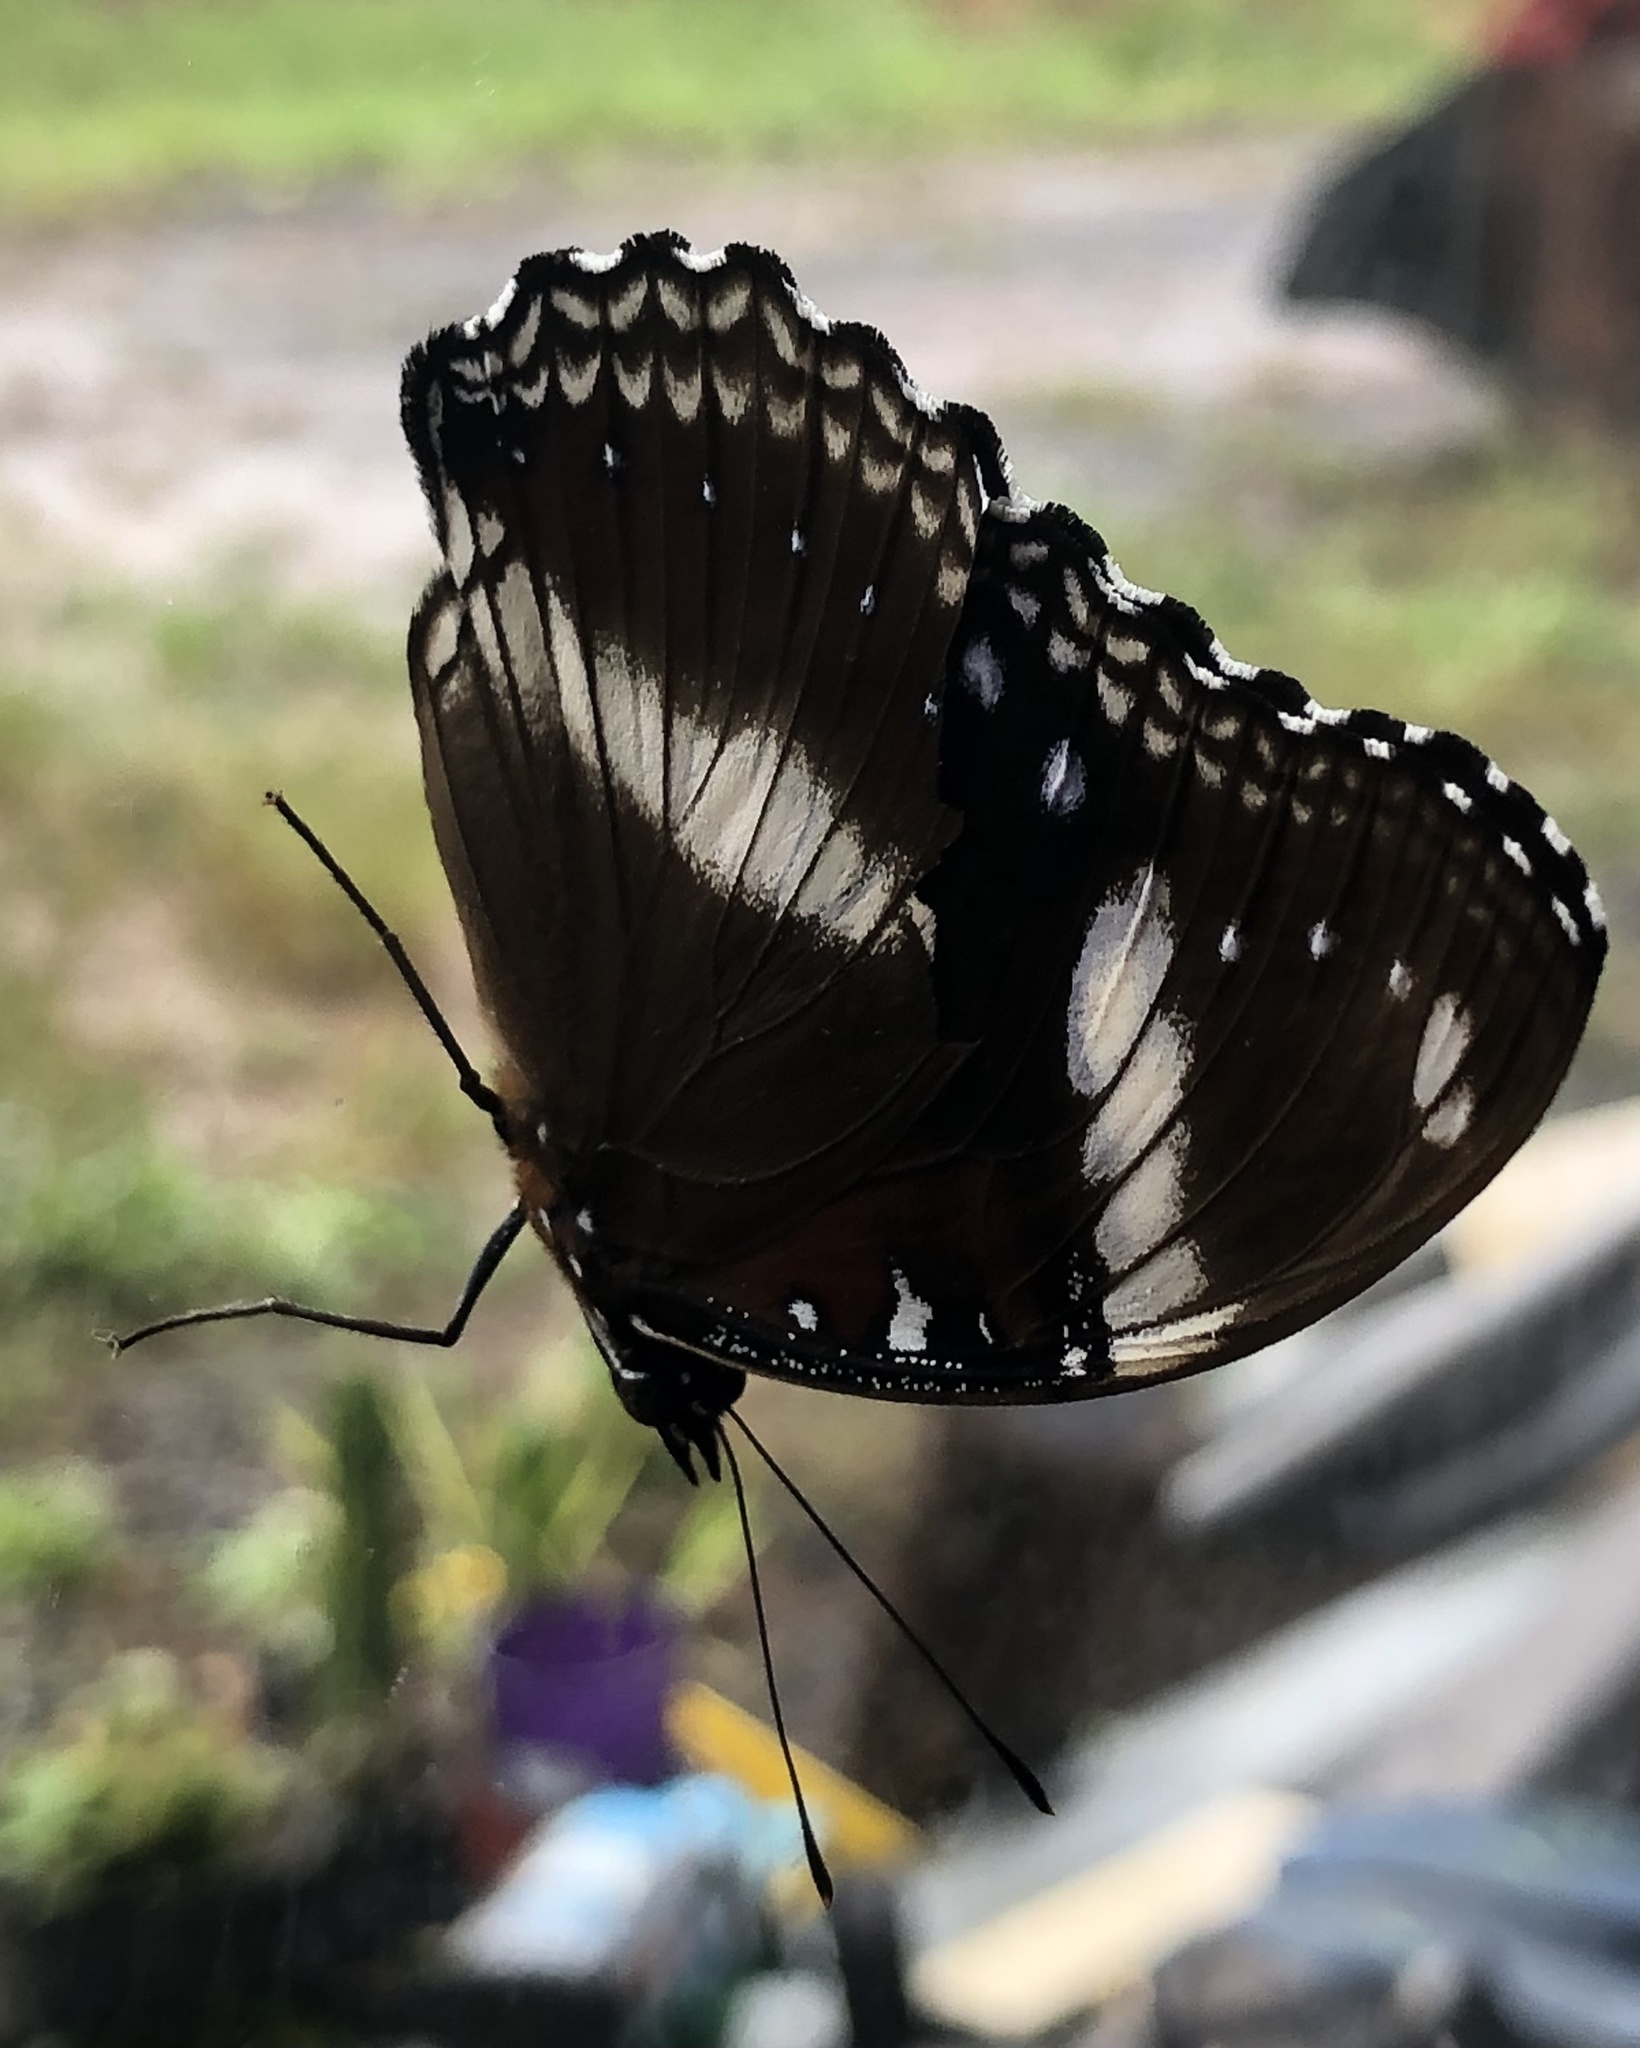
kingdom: Animalia
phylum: Arthropoda
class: Insecta
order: Lepidoptera
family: Nymphalidae
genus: Hypolimnas
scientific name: Hypolimnas bolina
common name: Great eggfly
